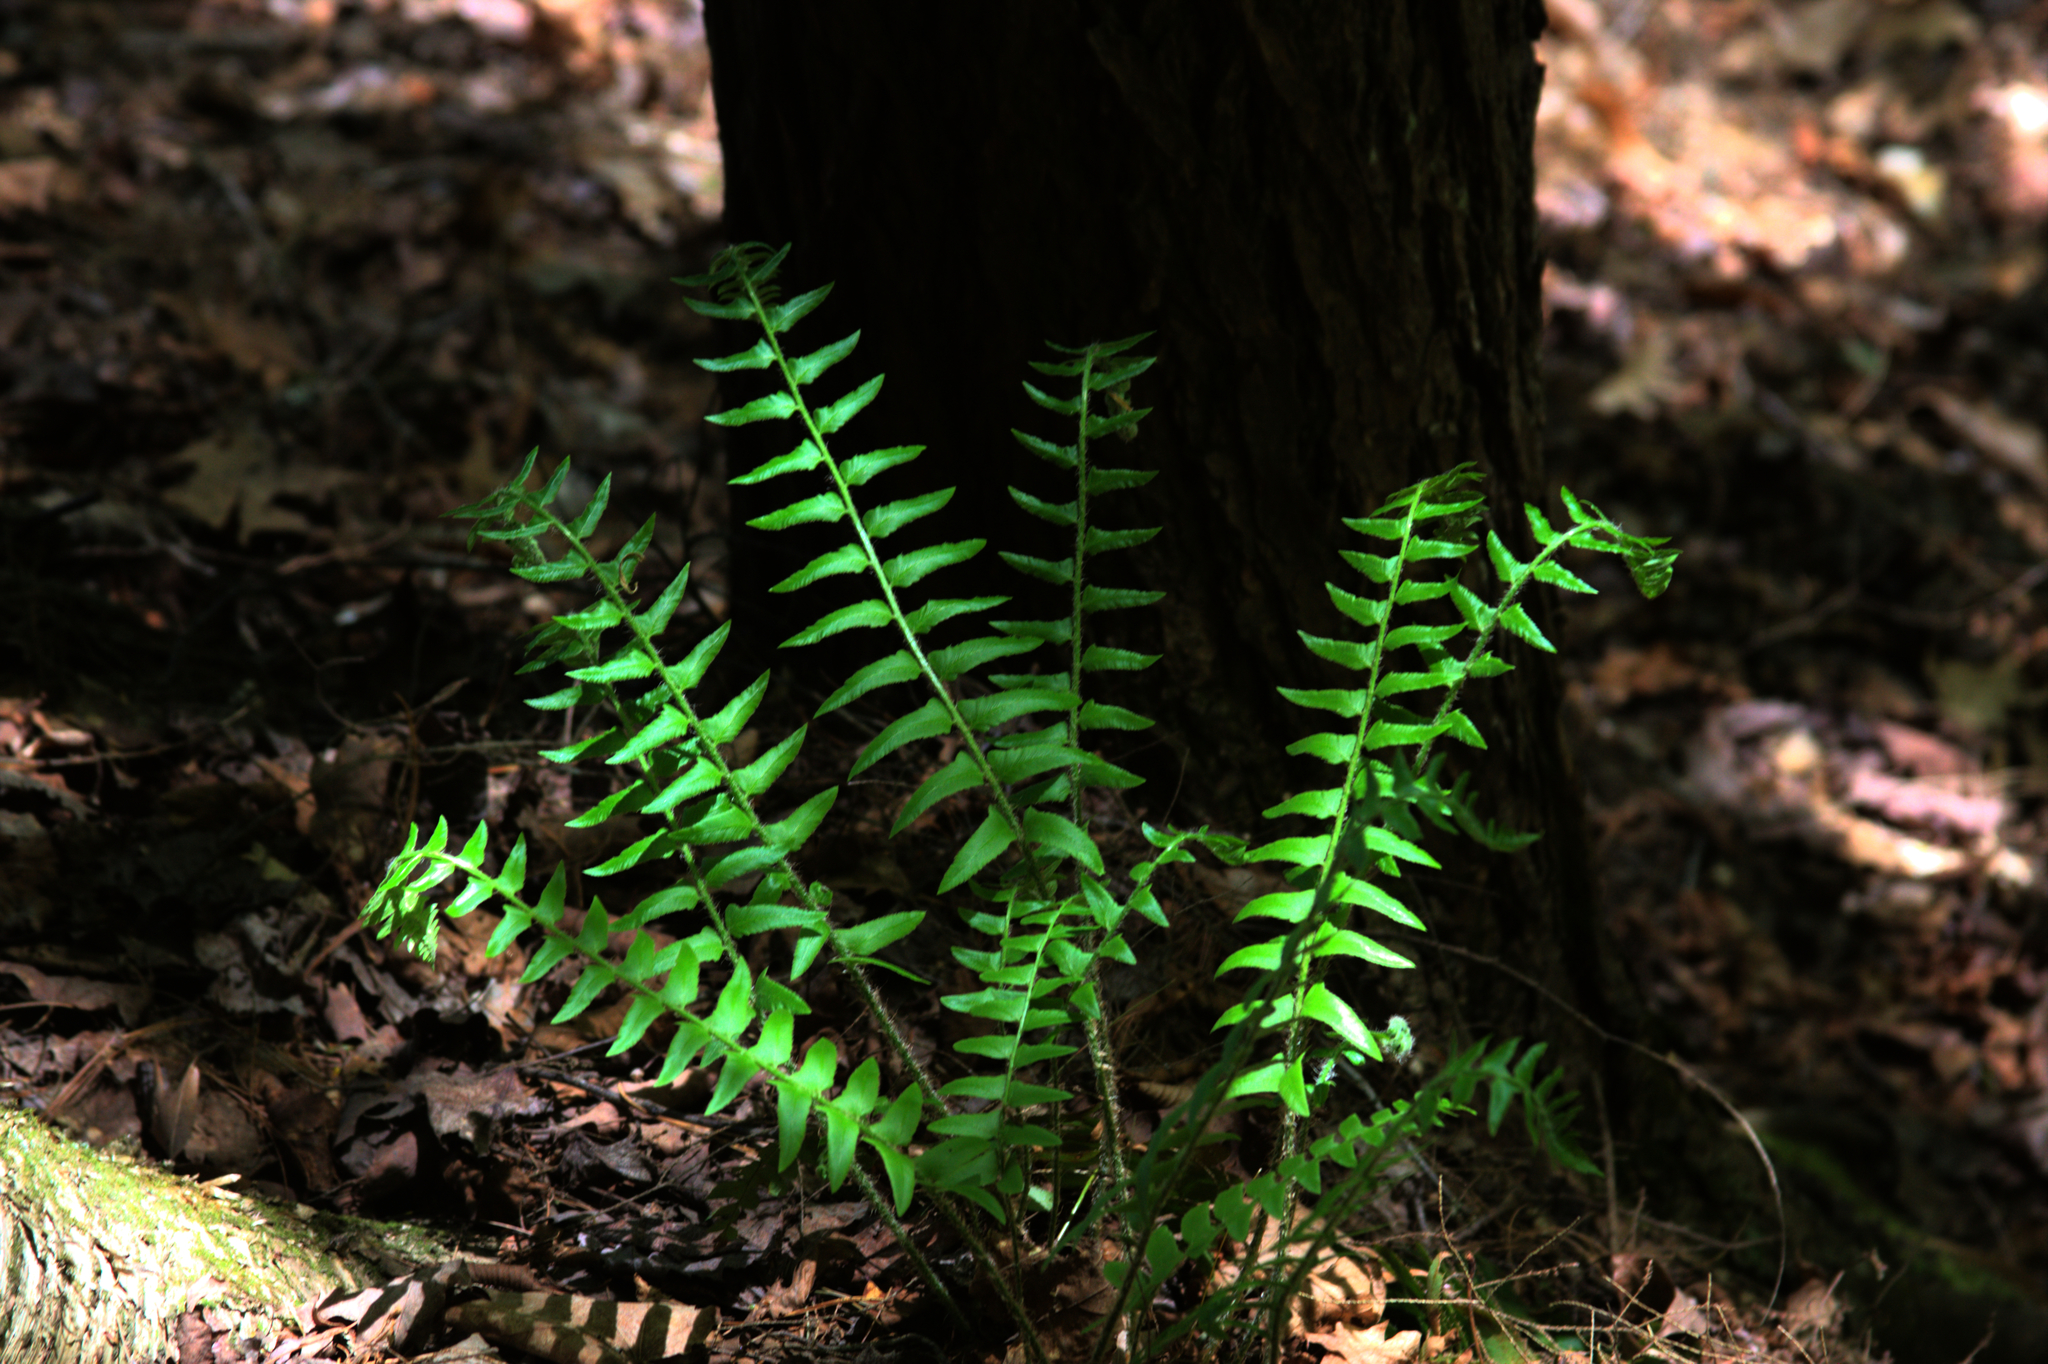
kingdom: Plantae
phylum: Tracheophyta
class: Polypodiopsida
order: Polypodiales
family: Dryopteridaceae
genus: Polystichum
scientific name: Polystichum acrostichoides
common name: Christmas fern
